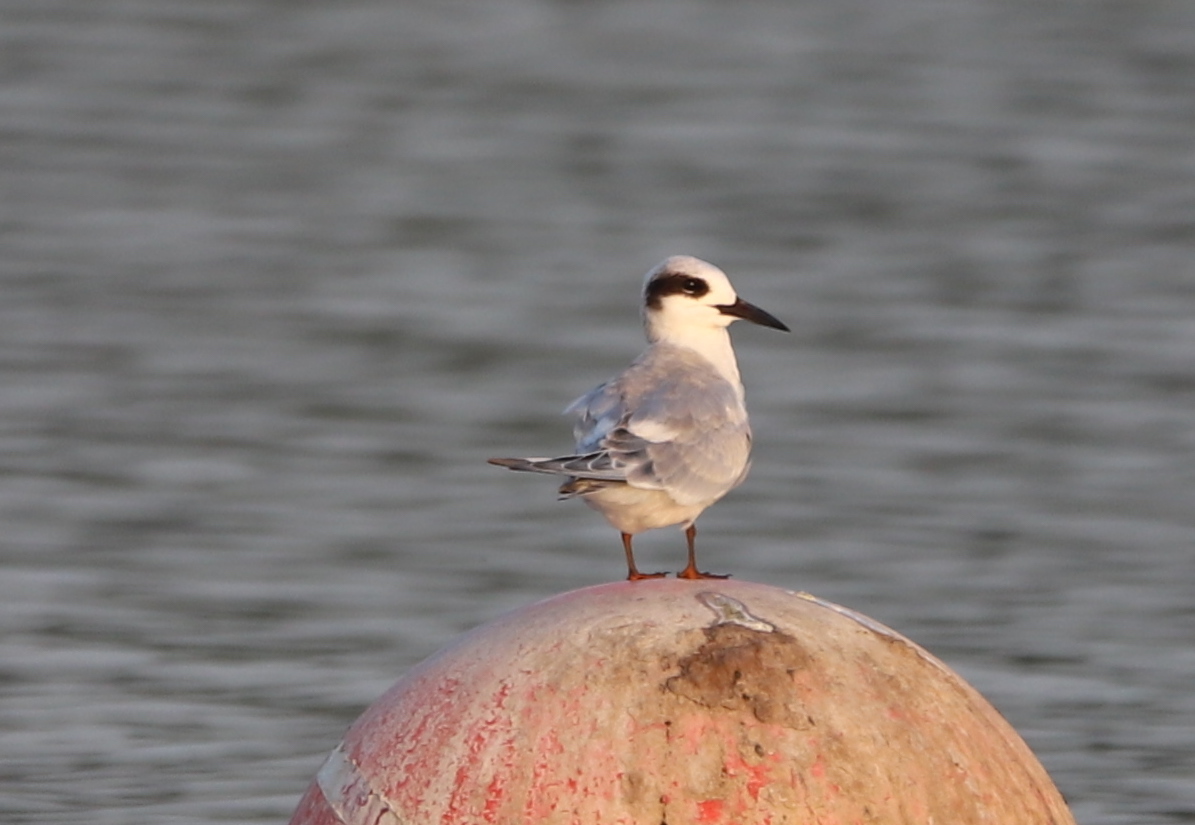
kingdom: Animalia
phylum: Chordata
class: Aves
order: Charadriiformes
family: Laridae
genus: Sterna
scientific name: Sterna forsteri
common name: Forster's tern
